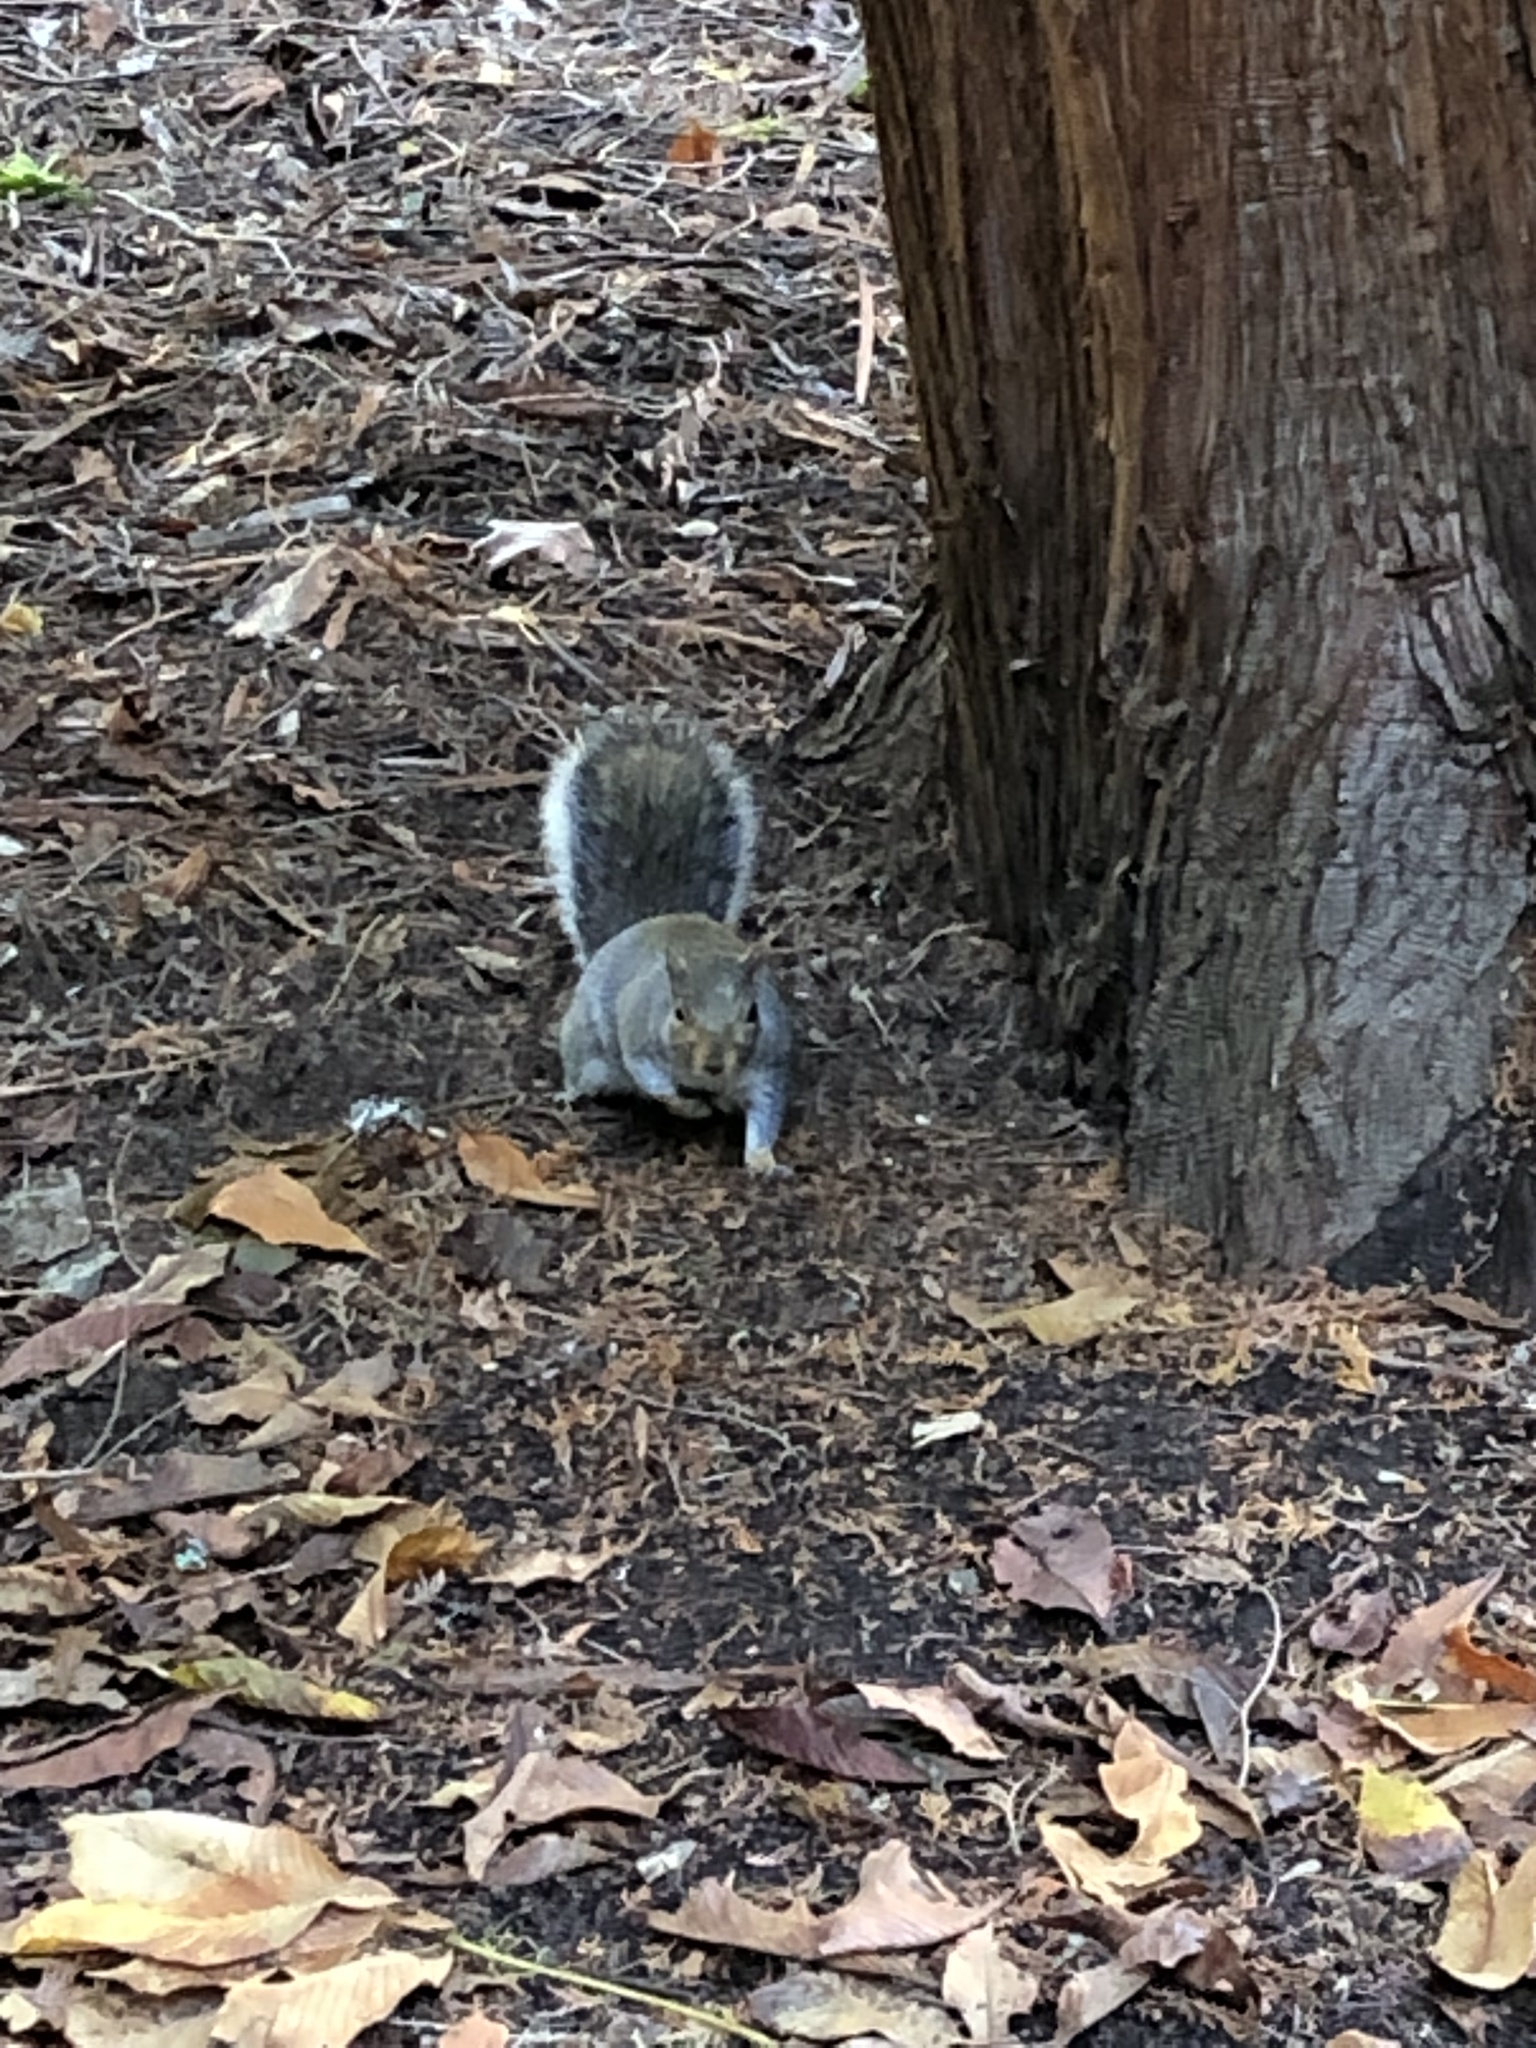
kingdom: Animalia
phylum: Chordata
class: Mammalia
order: Rodentia
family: Sciuridae
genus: Sciurus
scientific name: Sciurus carolinensis
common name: Eastern gray squirrel
